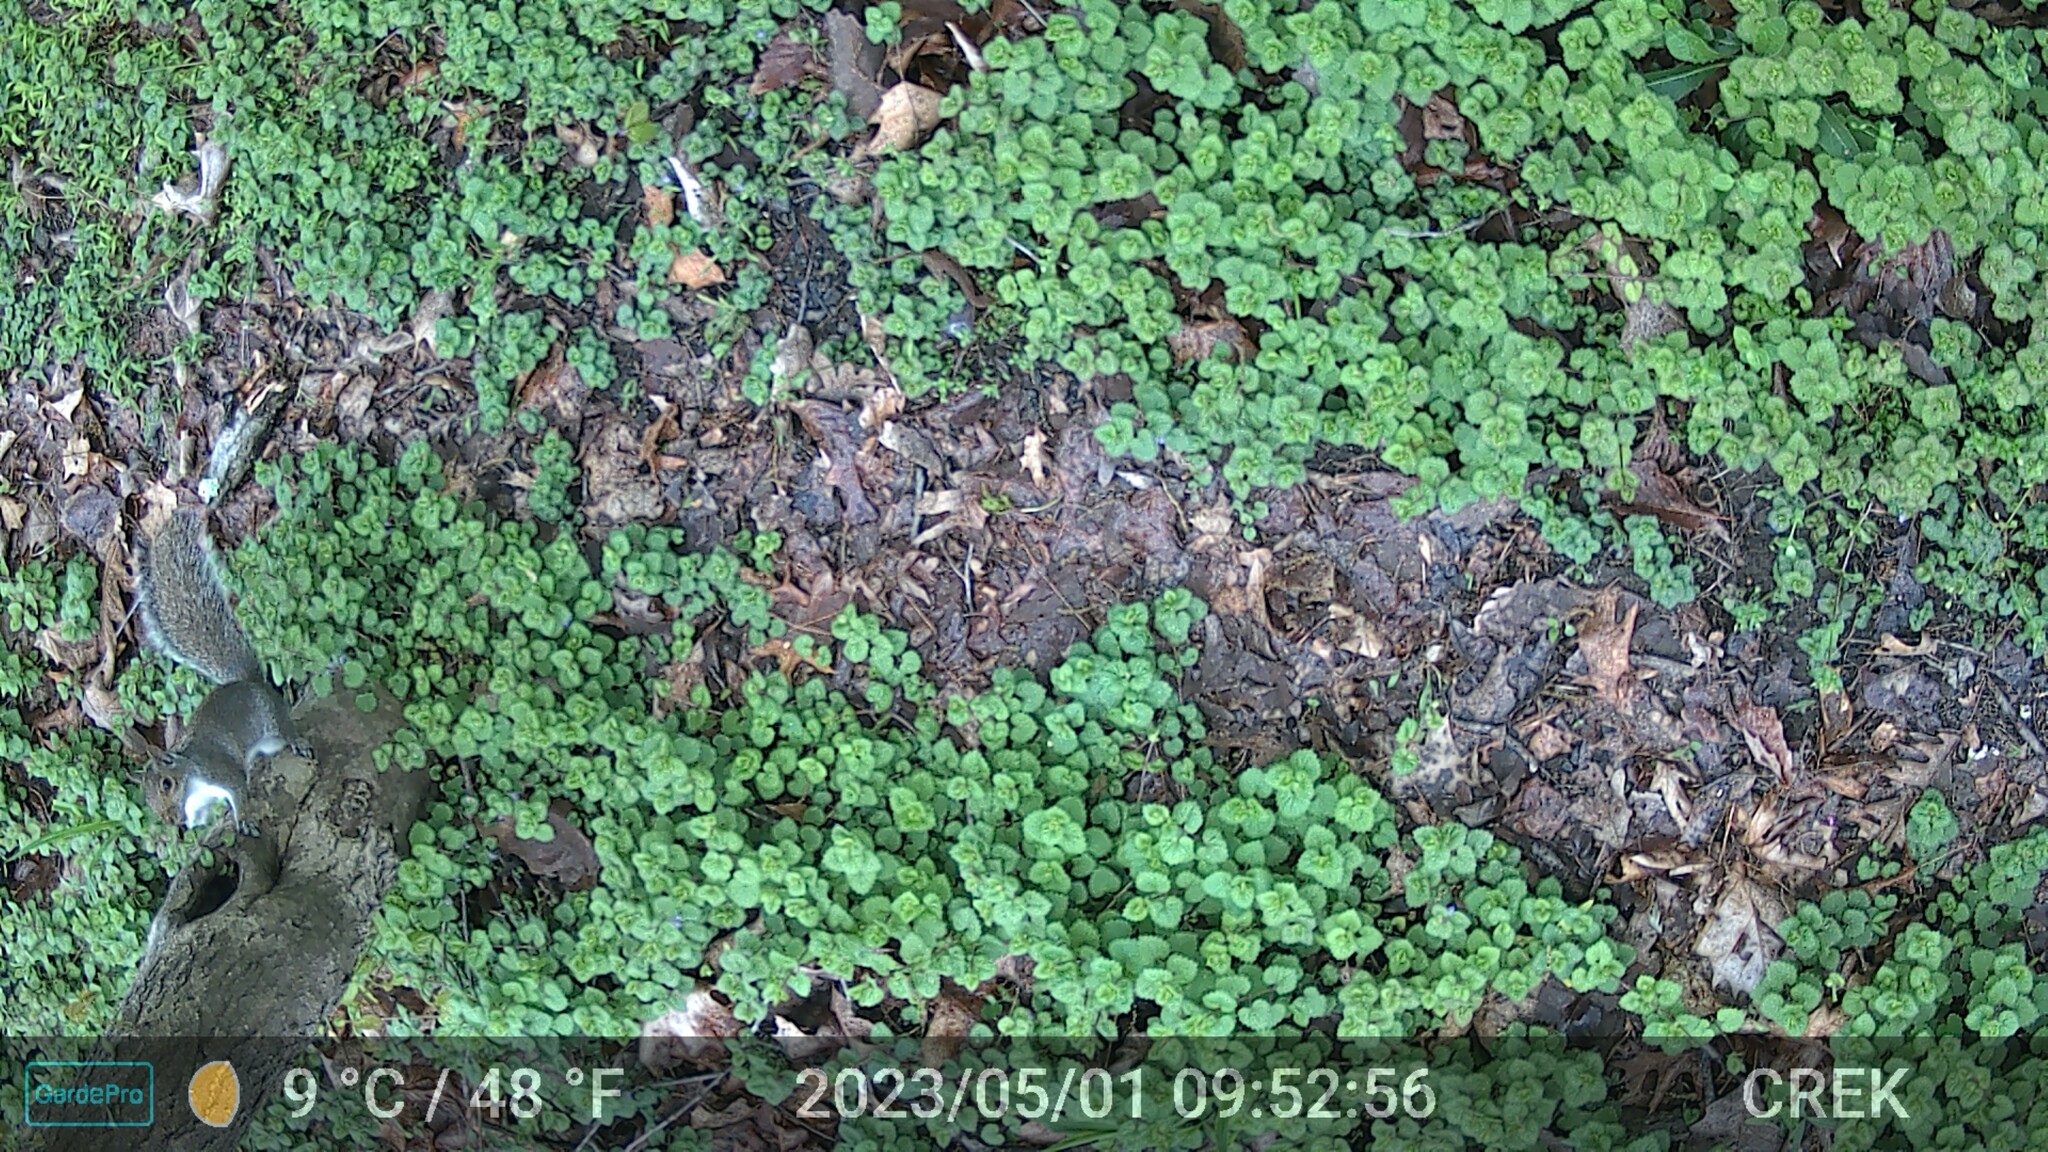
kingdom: Animalia
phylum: Chordata
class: Mammalia
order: Rodentia
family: Sciuridae
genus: Sciurus
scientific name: Sciurus carolinensis
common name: Eastern gray squirrel
